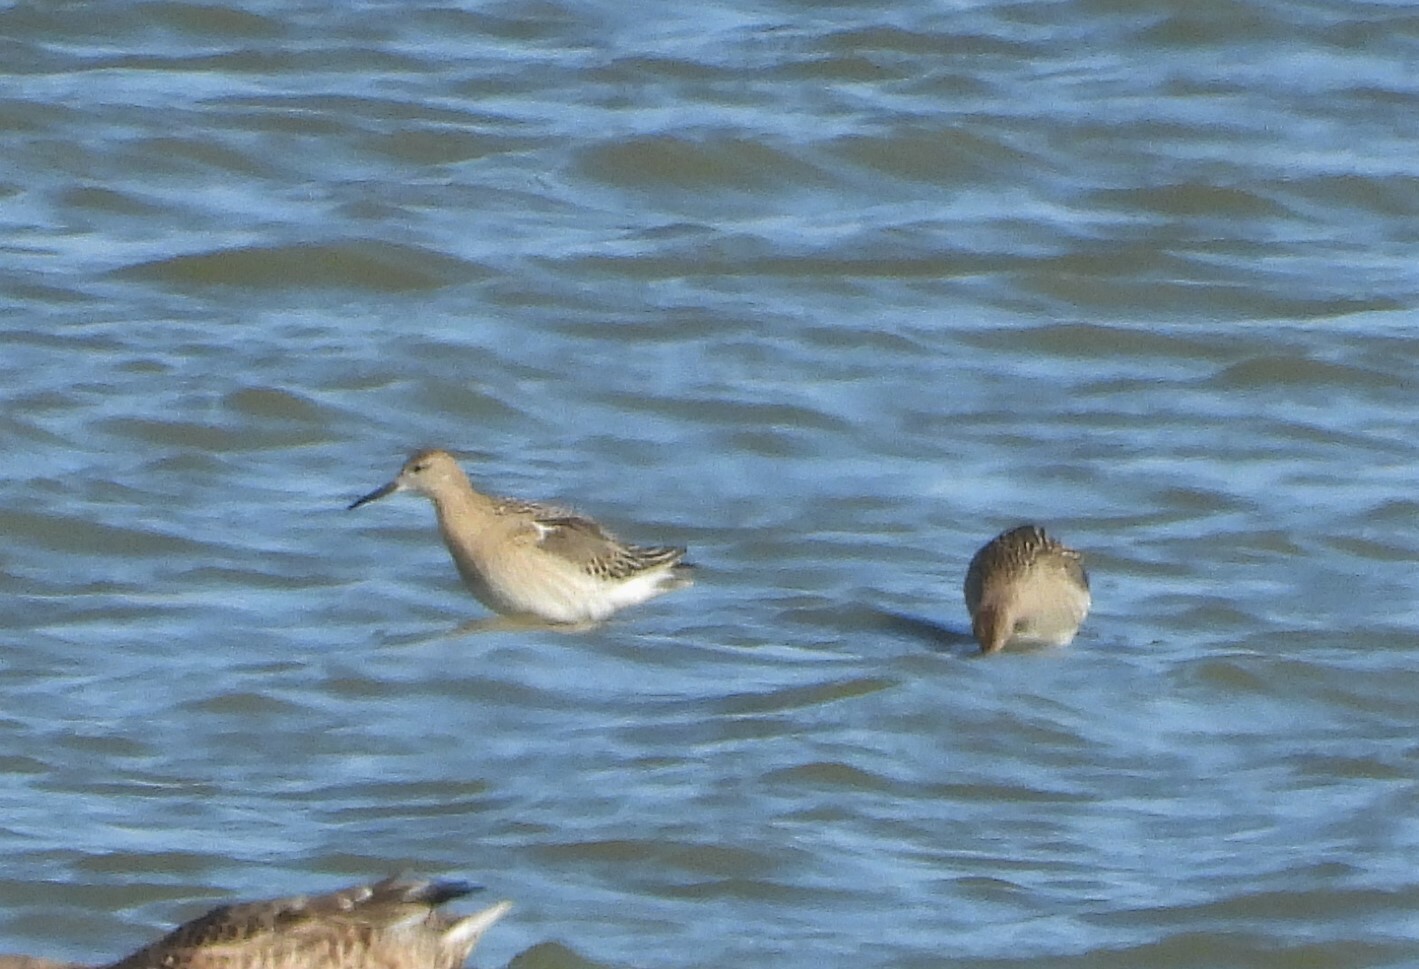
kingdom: Animalia
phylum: Chordata
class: Aves
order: Charadriiformes
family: Scolopacidae
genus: Calidris
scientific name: Calidris pugnax
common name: Ruff
